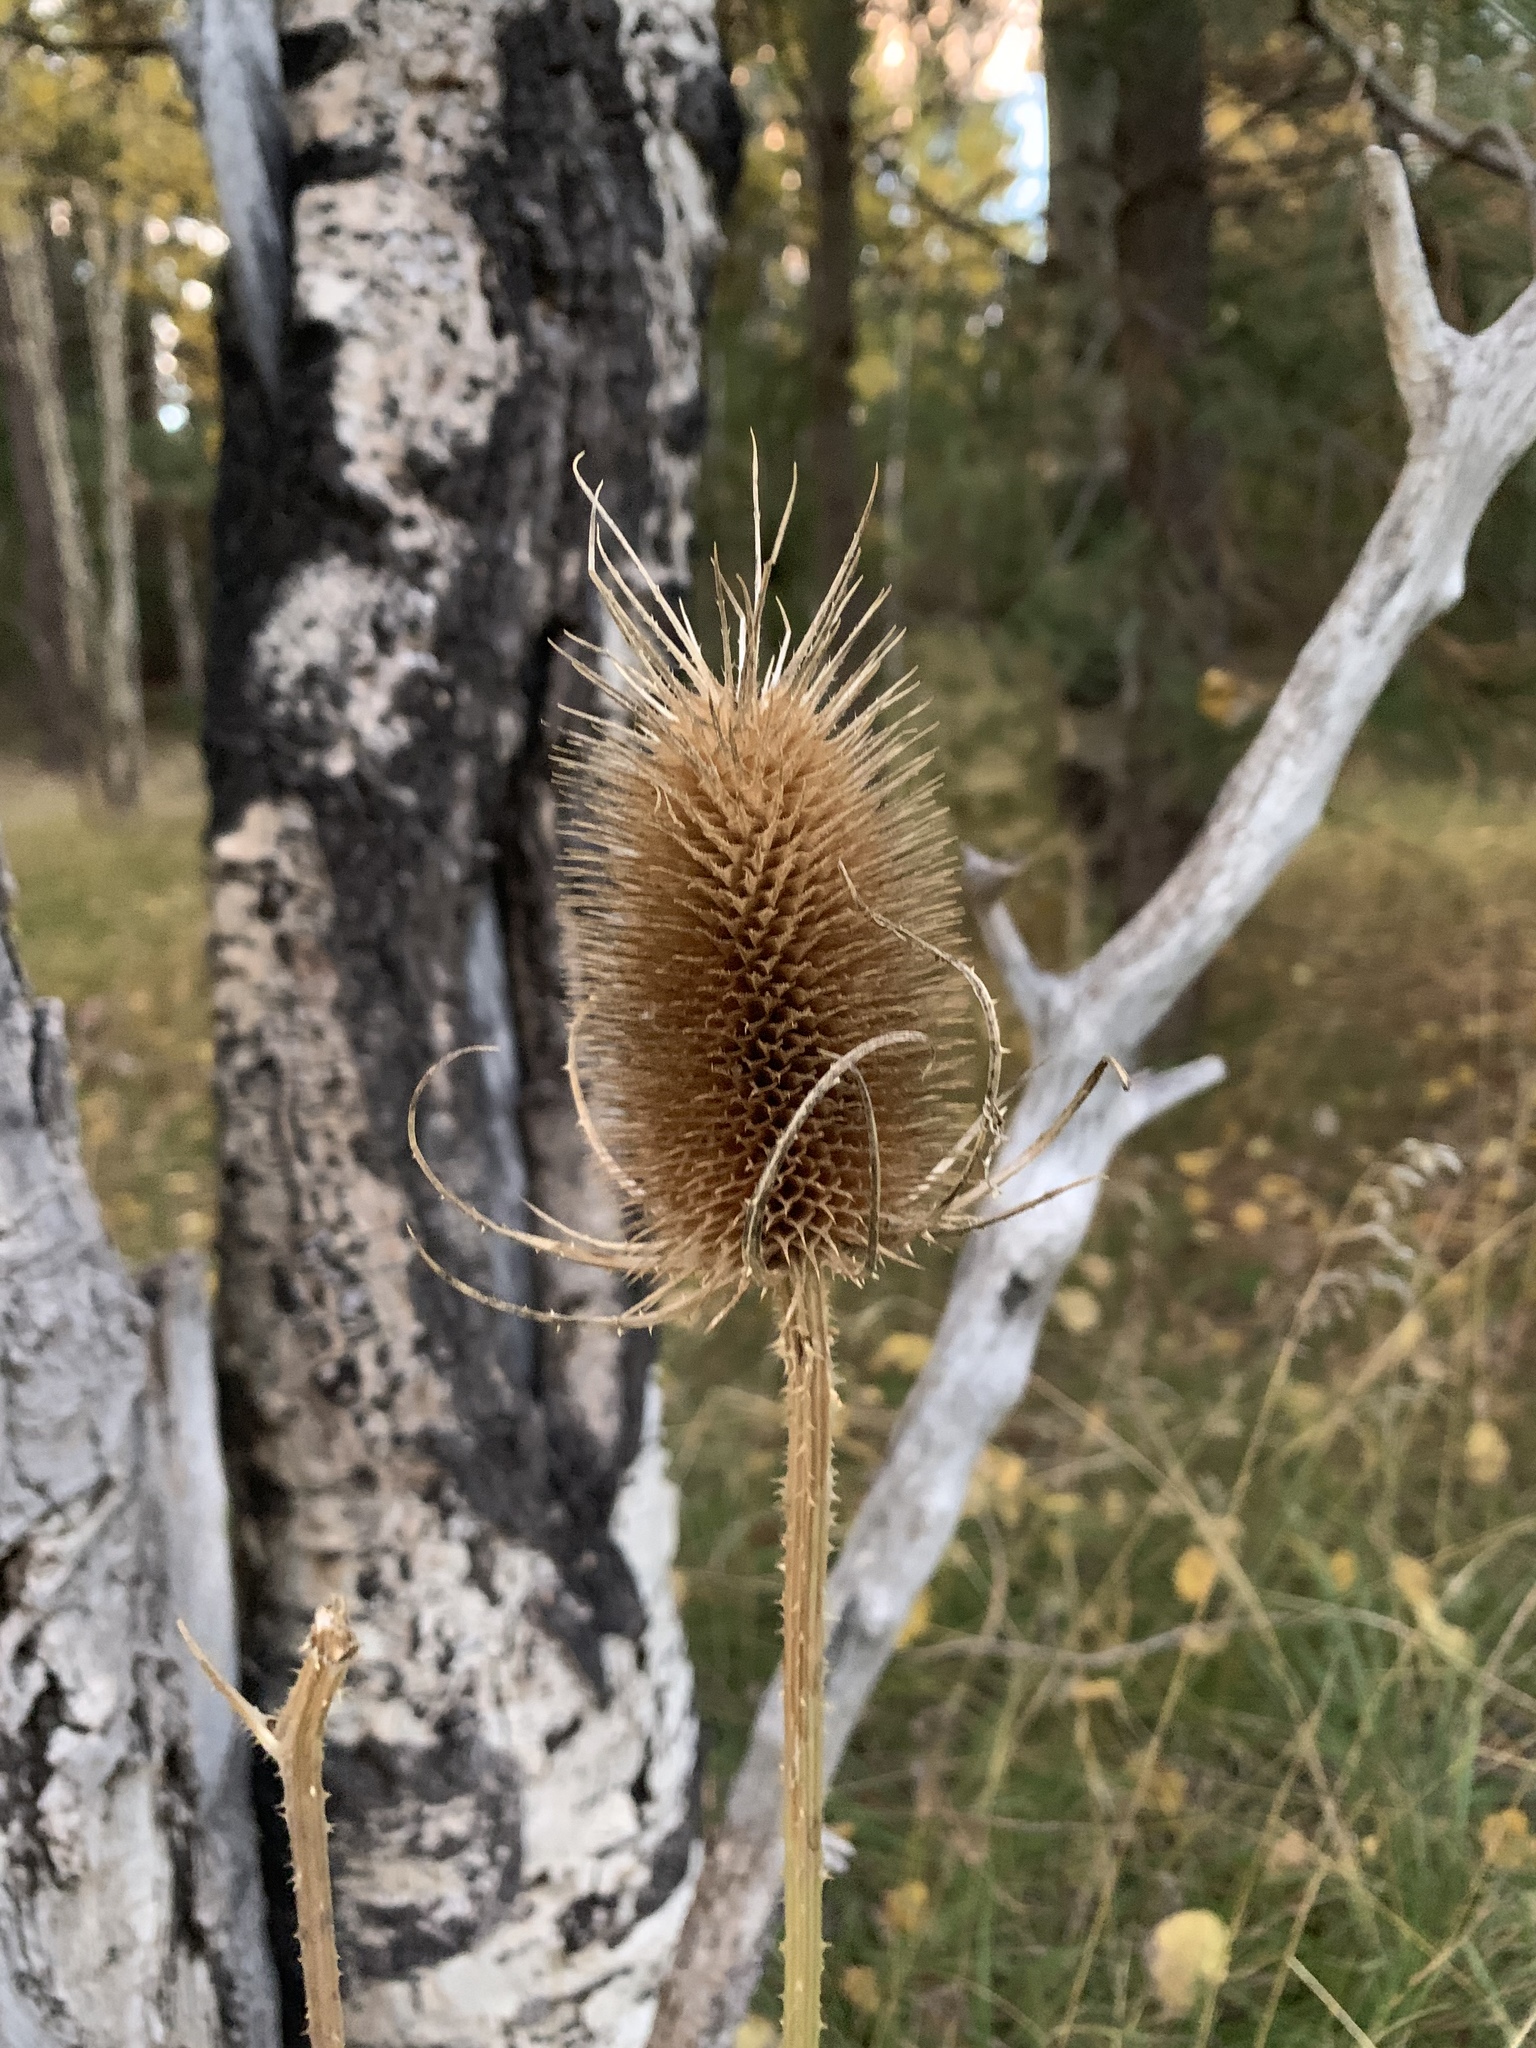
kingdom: Plantae
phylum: Tracheophyta
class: Magnoliopsida
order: Dipsacales
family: Caprifoliaceae
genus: Dipsacus
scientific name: Dipsacus fullonum
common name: Teasel
